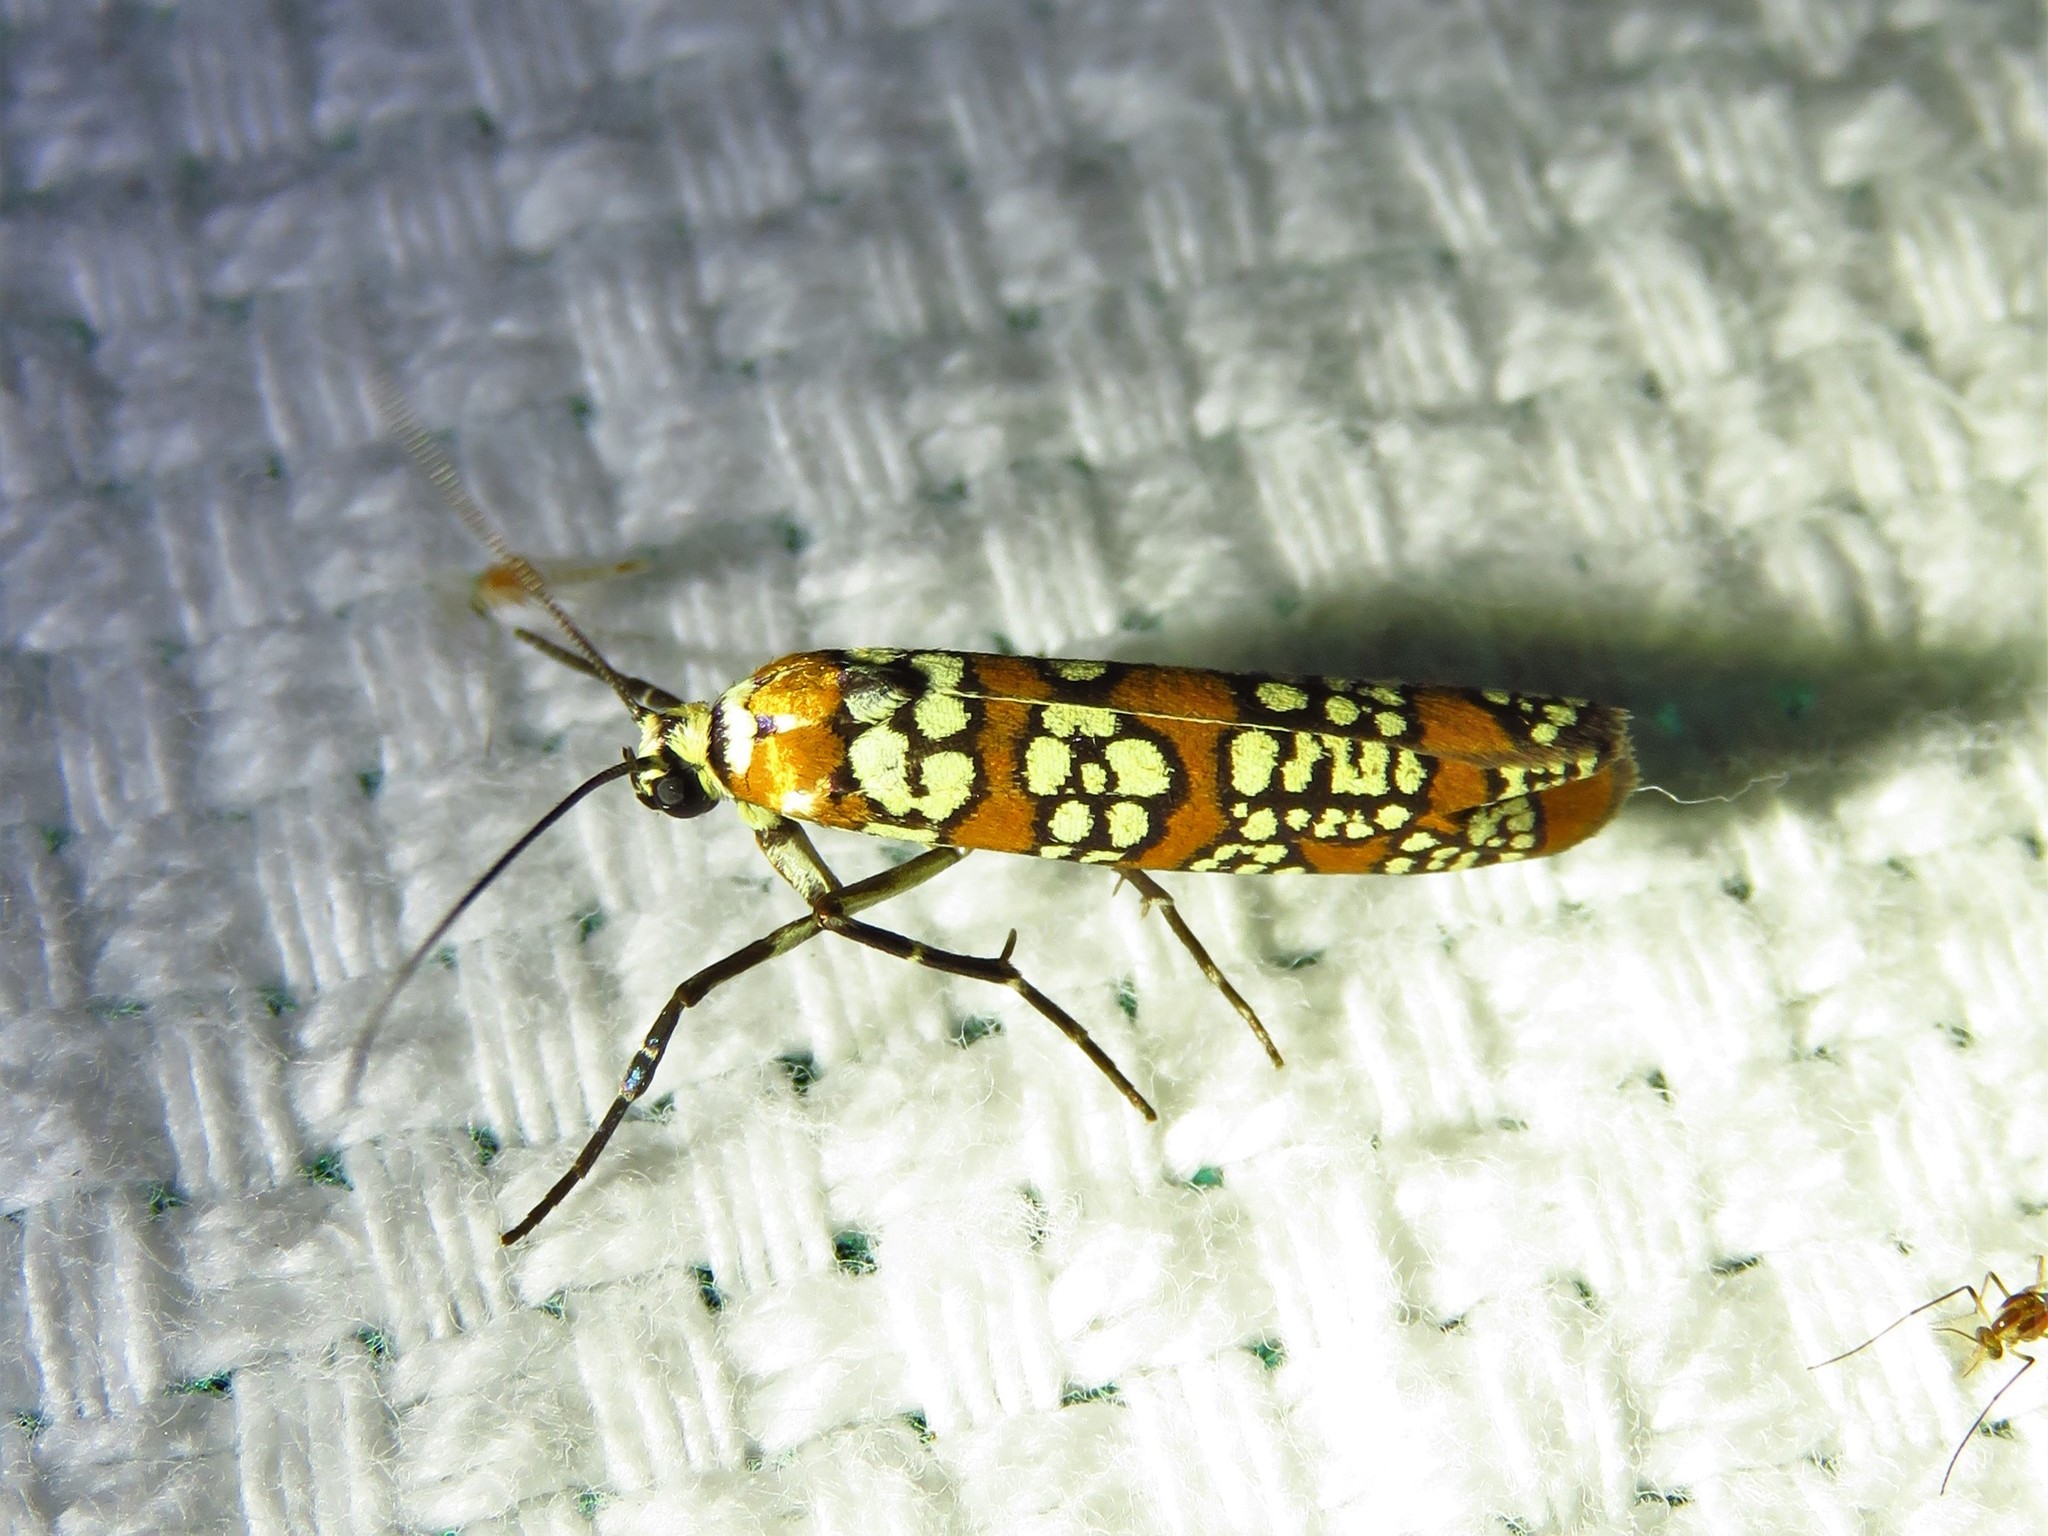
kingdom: Animalia
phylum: Arthropoda
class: Insecta
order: Lepidoptera
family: Attevidae
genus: Atteva
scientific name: Atteva punctella
